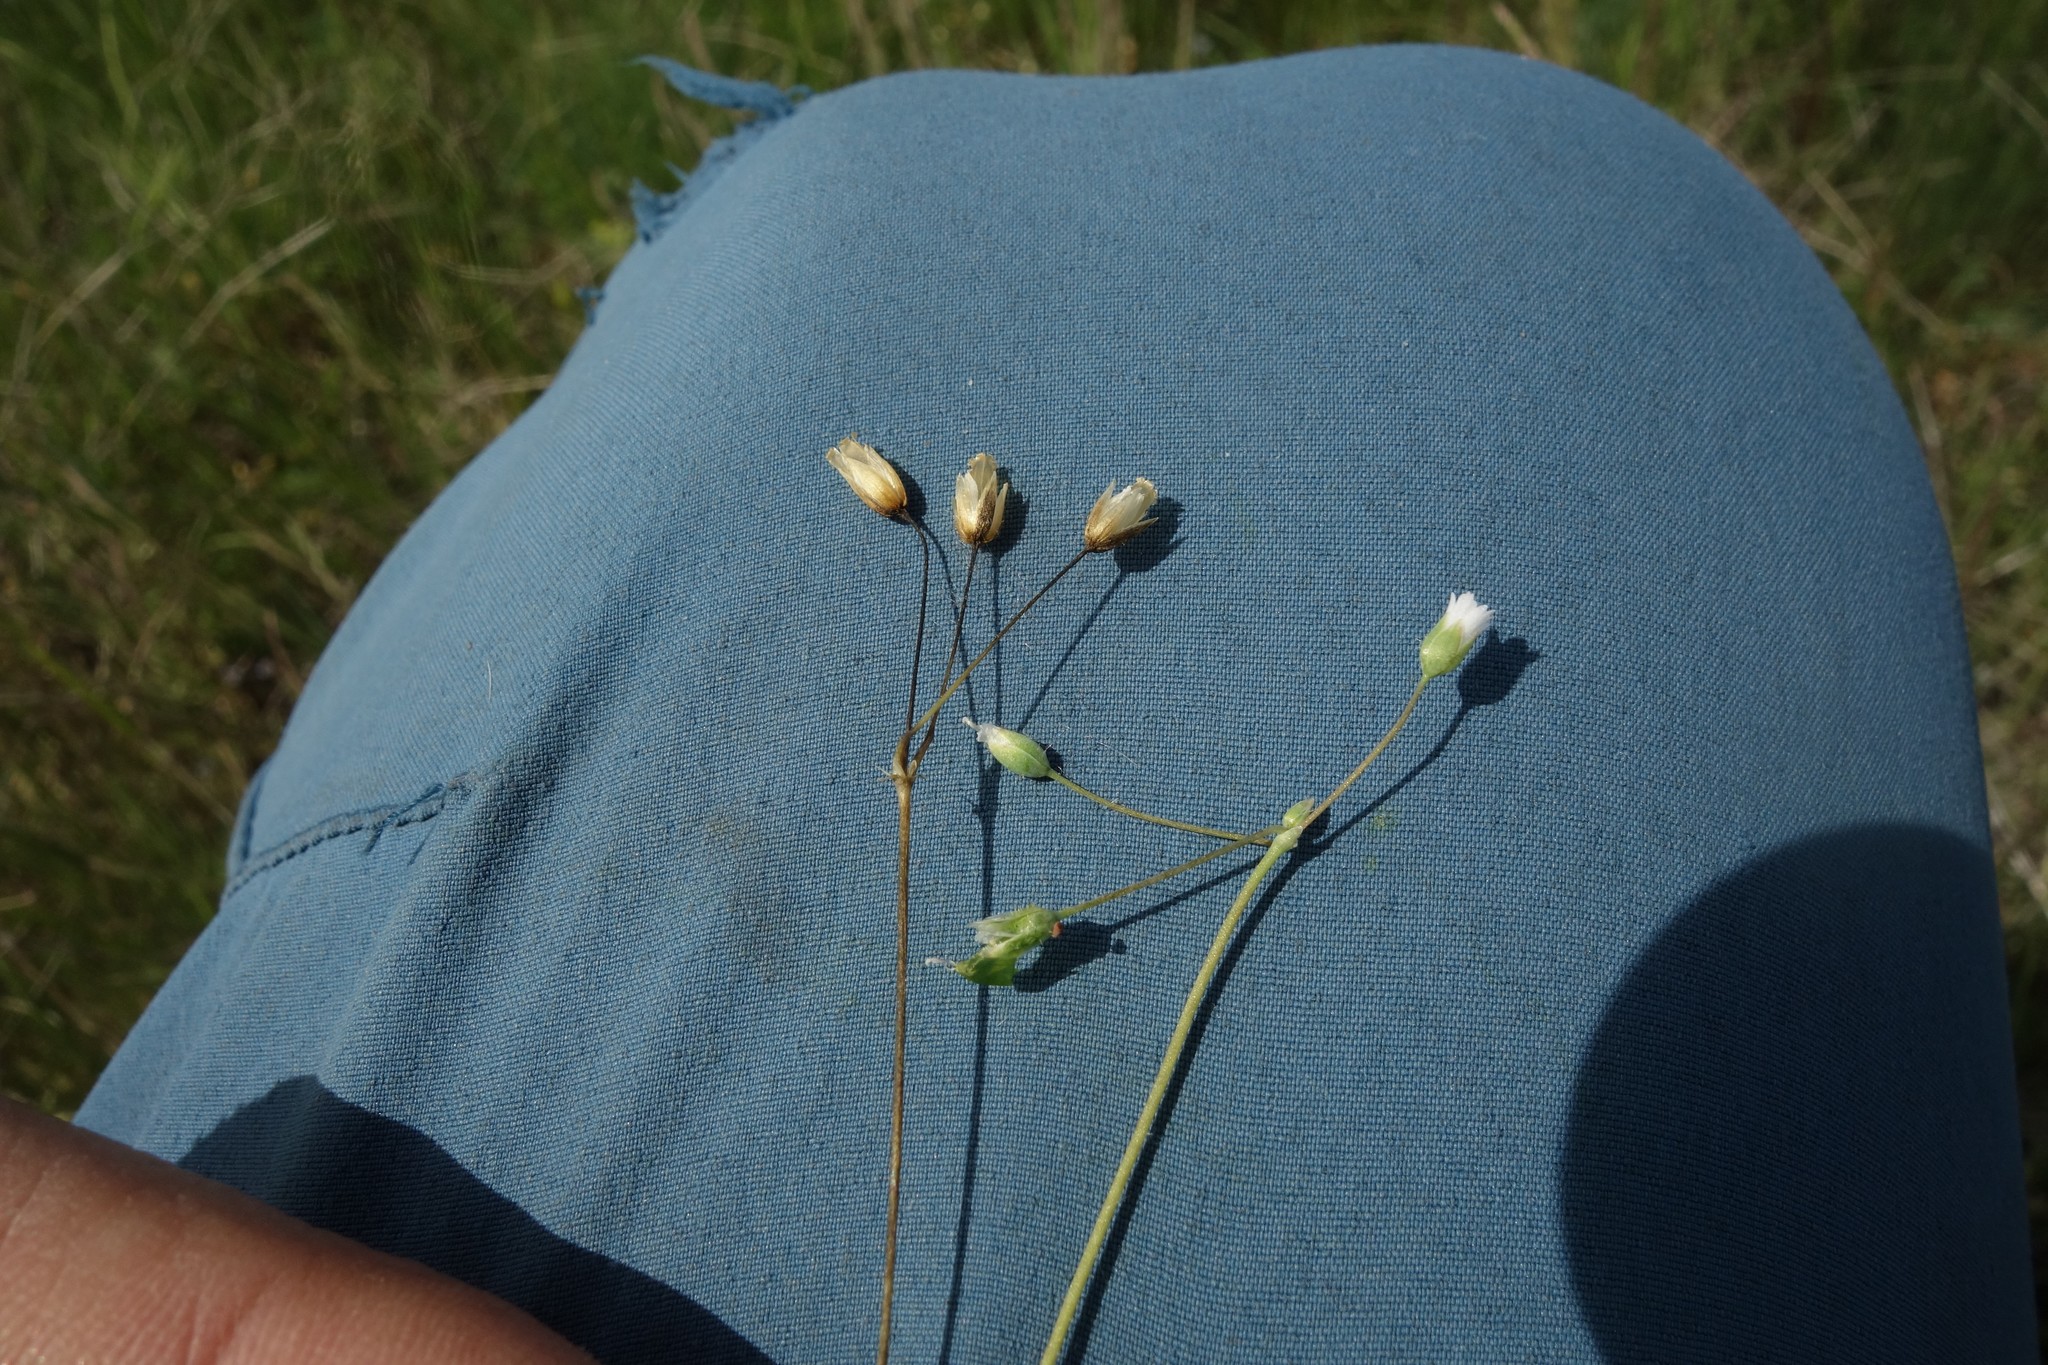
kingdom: Plantae
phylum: Tracheophyta
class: Magnoliopsida
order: Caryophyllales
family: Caryophyllaceae
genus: Holosteum
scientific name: Holosteum umbellatum
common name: Jagged chickweed
